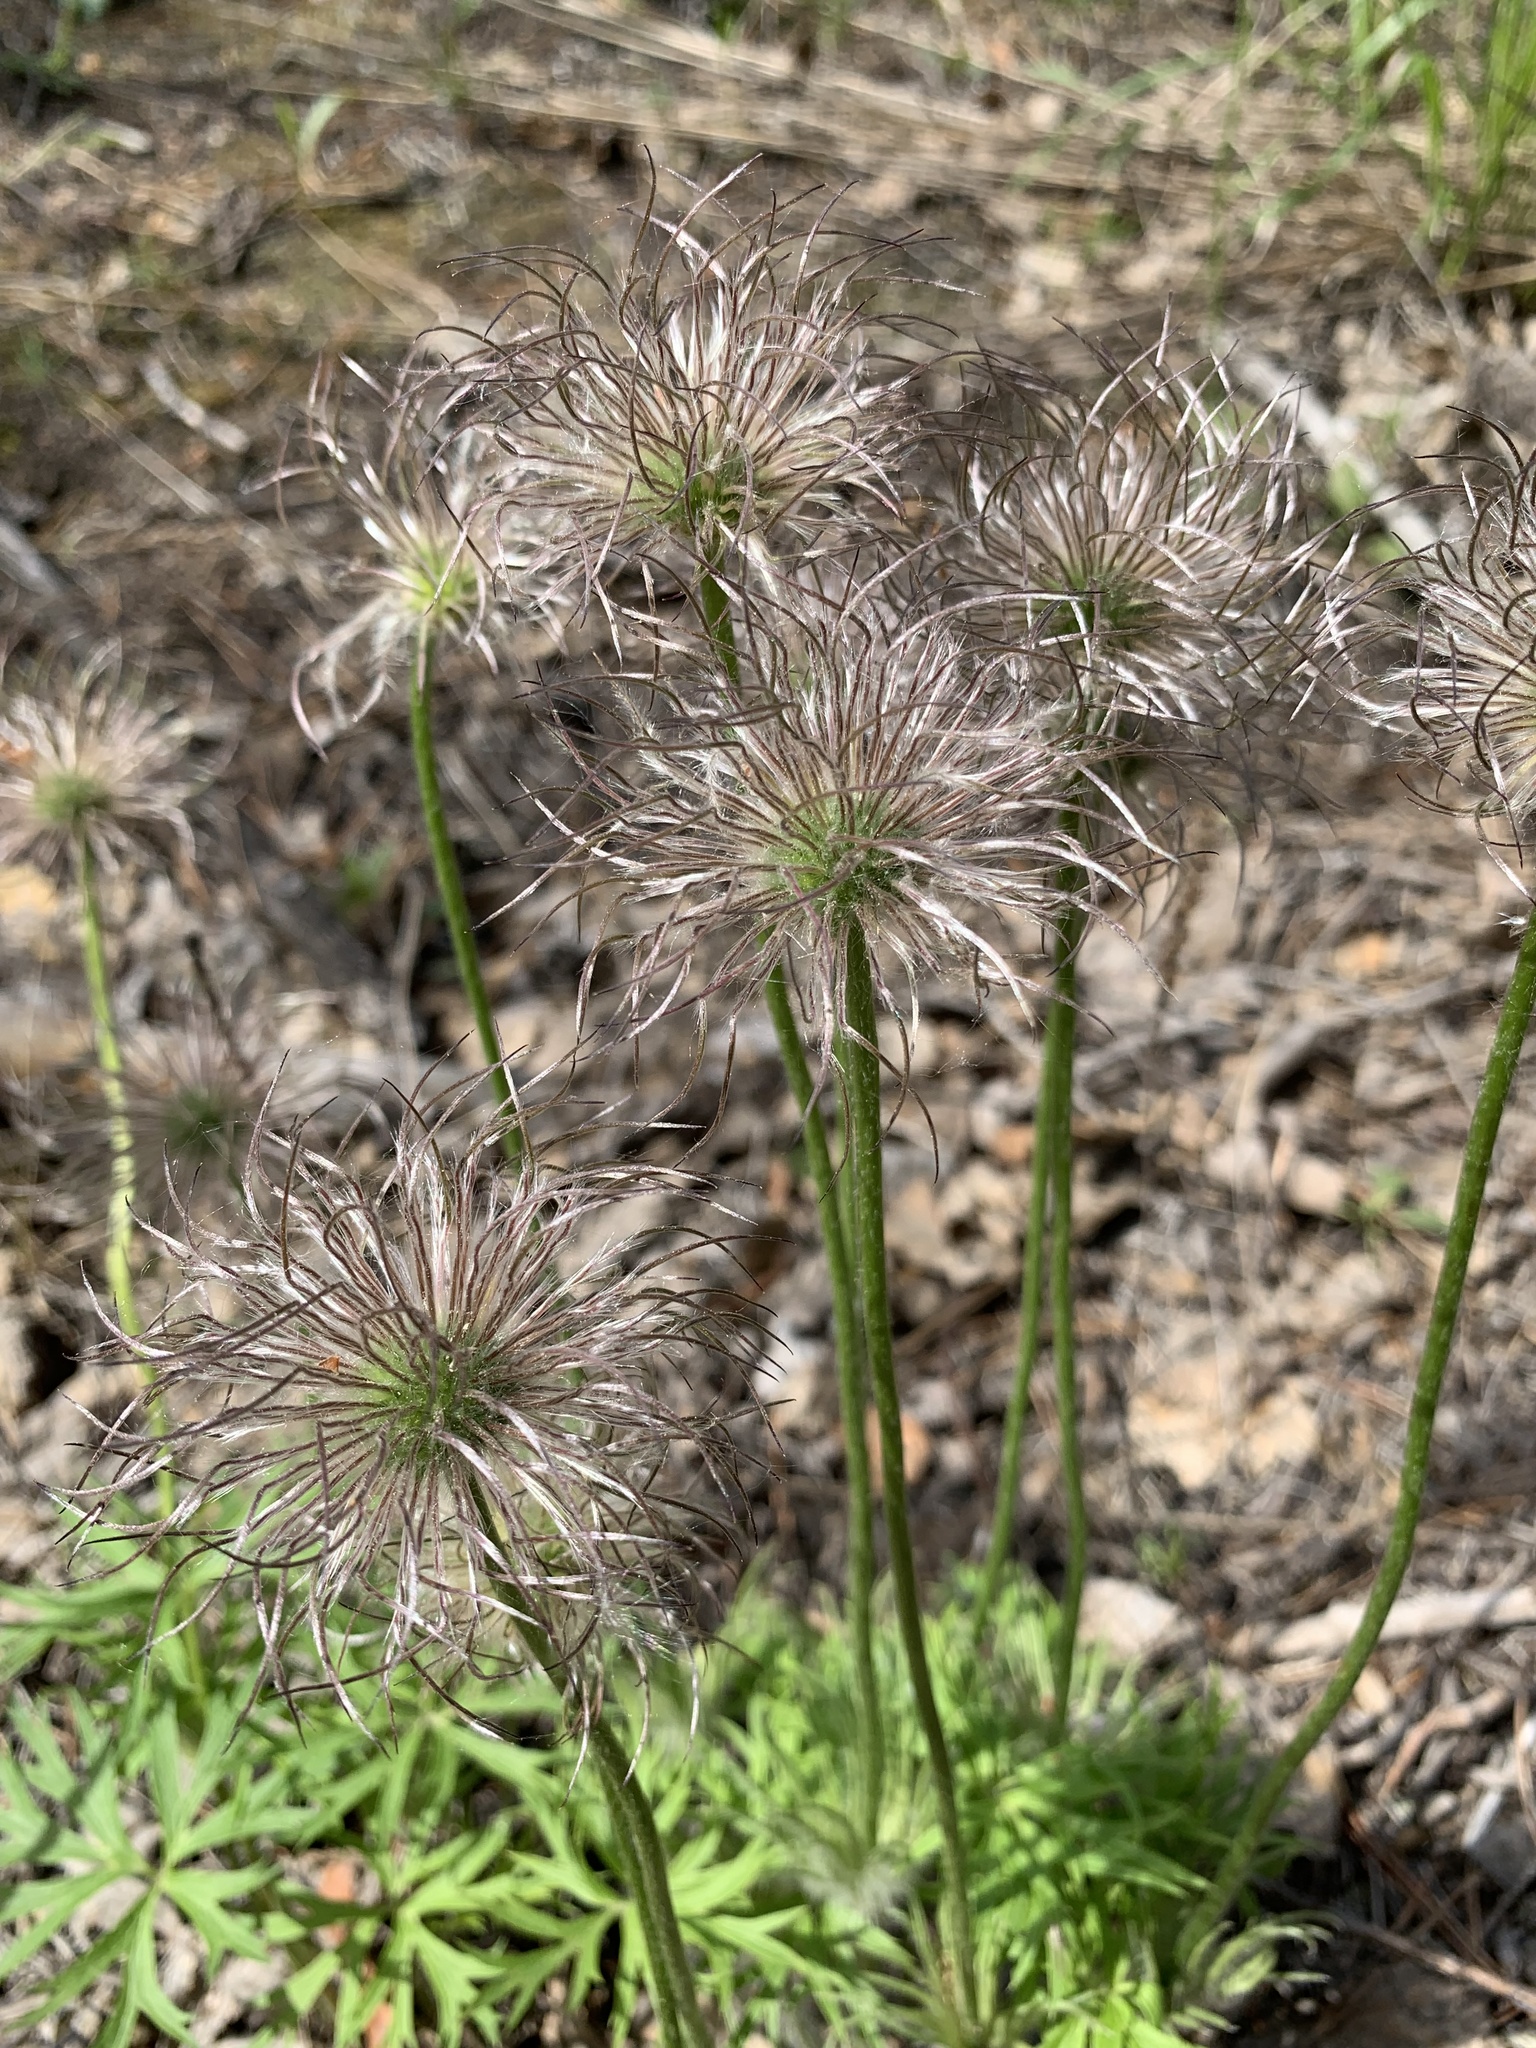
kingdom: Plantae
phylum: Tracheophyta
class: Magnoliopsida
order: Ranunculales
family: Ranunculaceae
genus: Pulsatilla
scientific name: Pulsatilla patens
